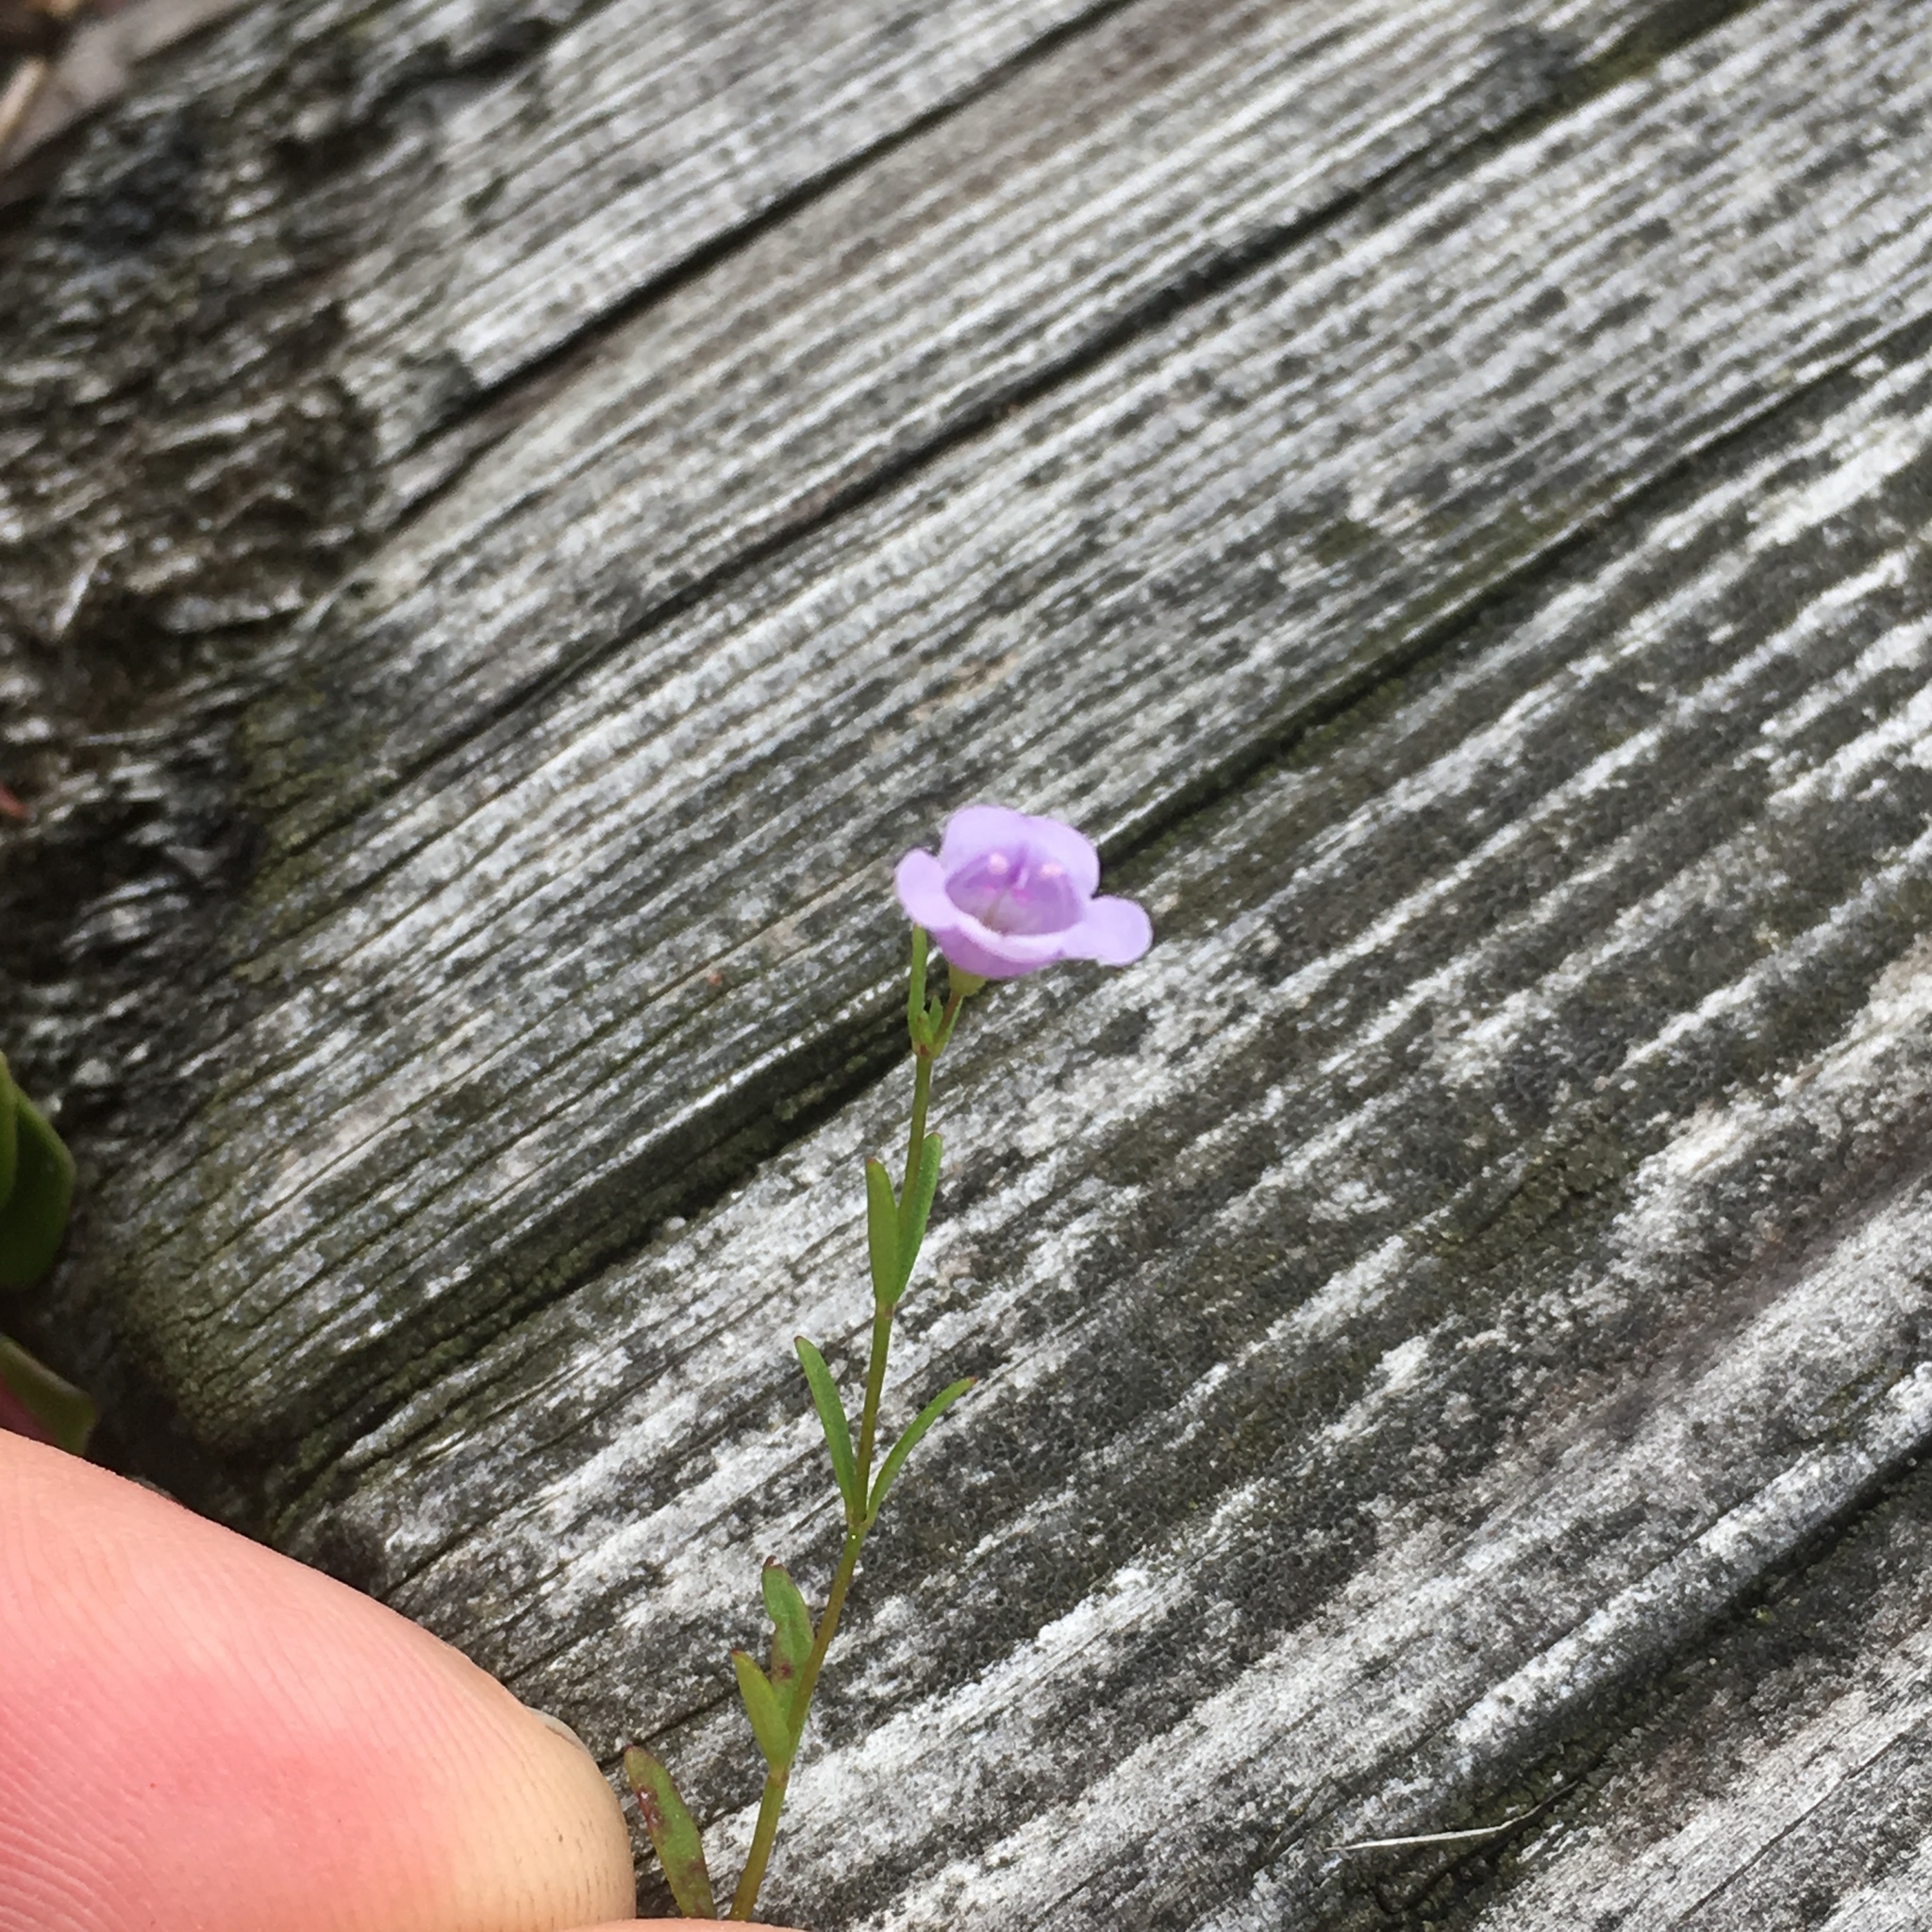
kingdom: Plantae
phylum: Tracheophyta
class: Magnoliopsida
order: Lamiales
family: Orobanchaceae
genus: Agalinis
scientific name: Agalinis purpurea
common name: Purple false foxglove
